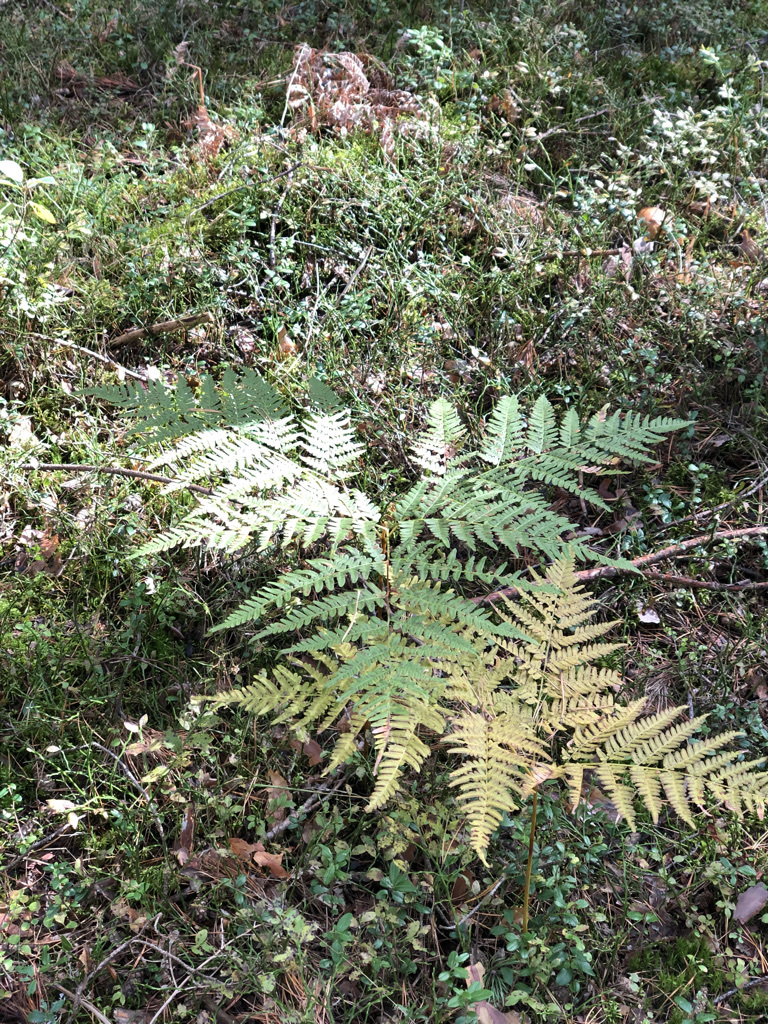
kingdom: Plantae
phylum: Tracheophyta
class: Polypodiopsida
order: Polypodiales
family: Dennstaedtiaceae
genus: Pteridium
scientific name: Pteridium aquilinum
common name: Bracken
